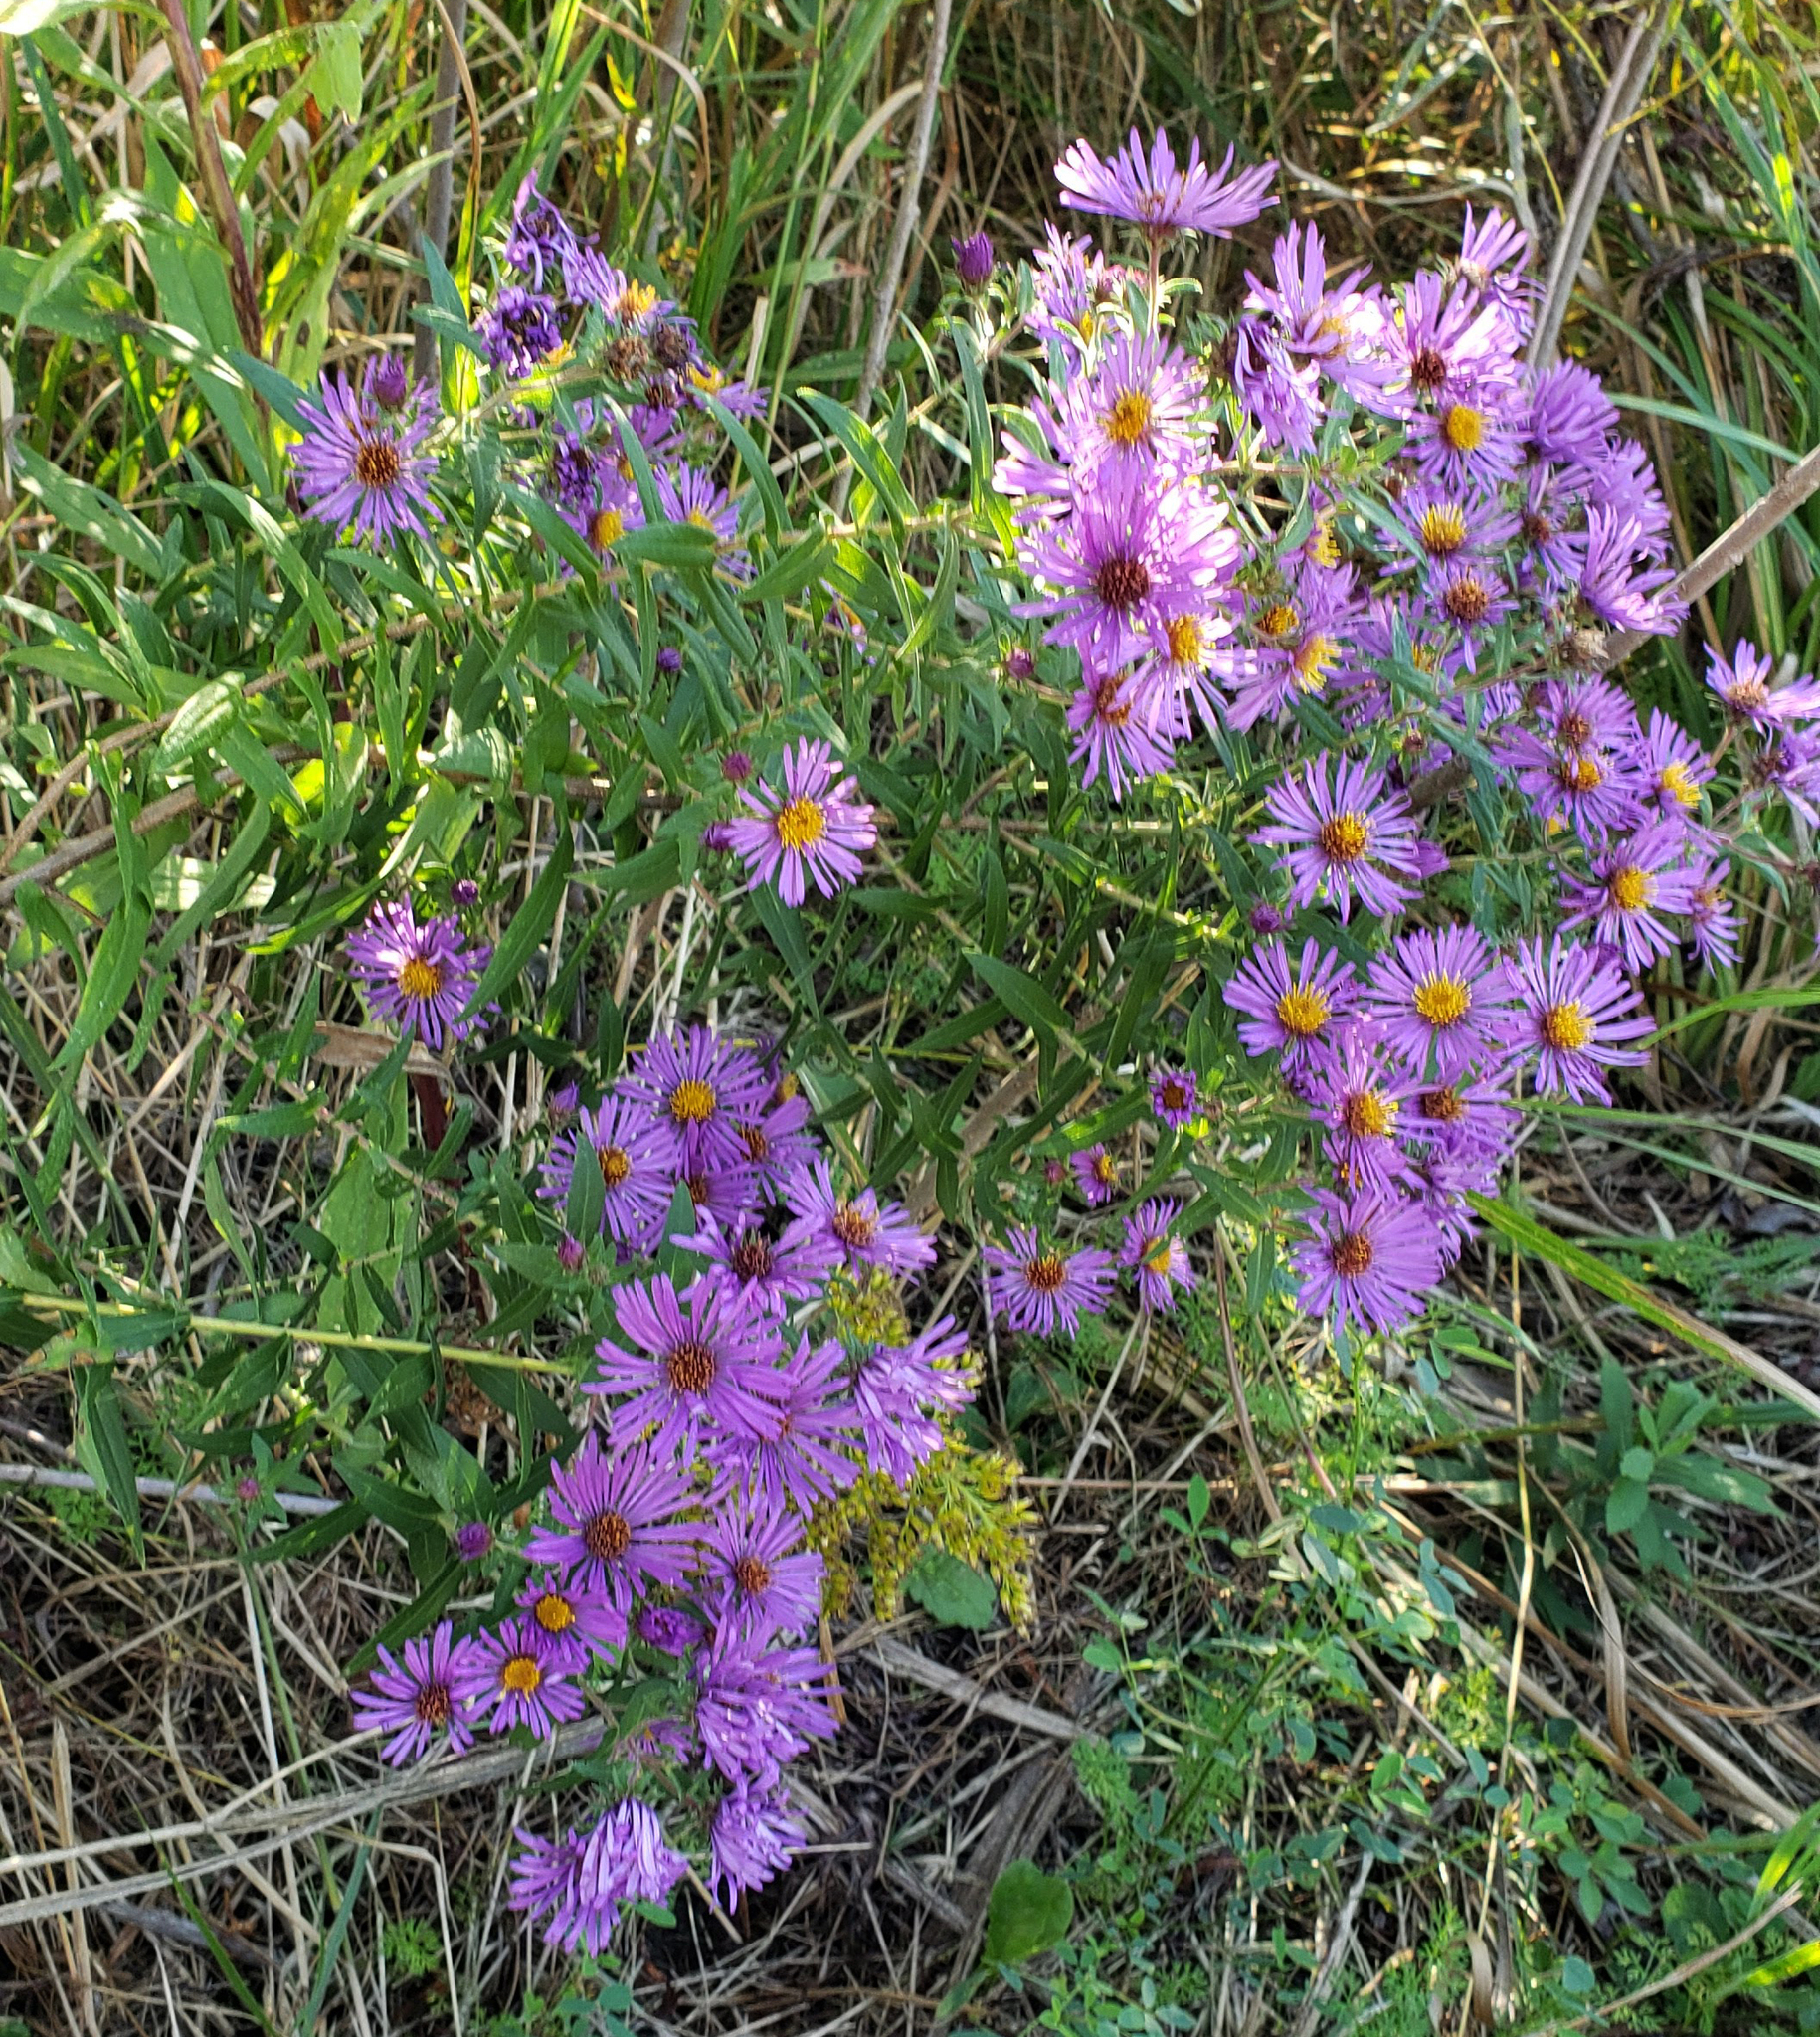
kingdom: Plantae
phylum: Tracheophyta
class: Magnoliopsida
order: Asterales
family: Asteraceae
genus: Symphyotrichum
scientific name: Symphyotrichum novae-angliae
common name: Michaelmas daisy
